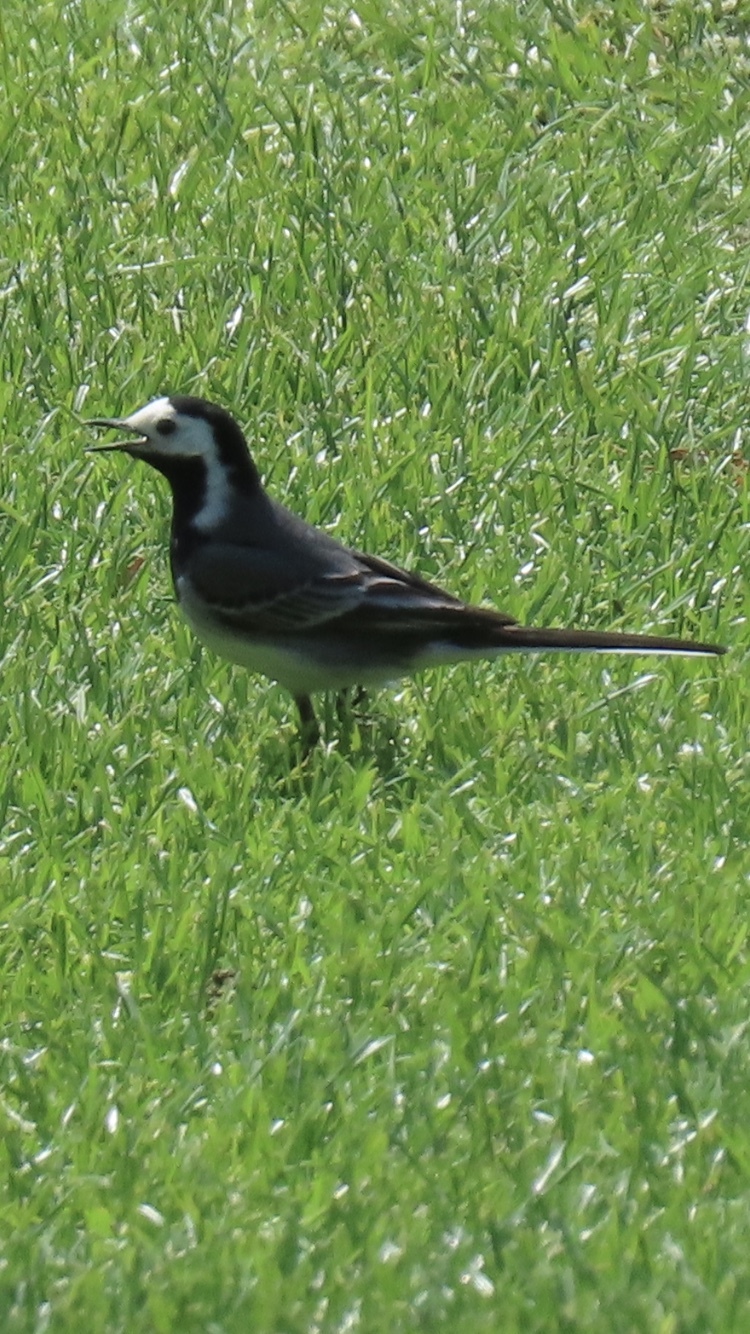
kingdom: Animalia
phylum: Chordata
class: Aves
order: Passeriformes
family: Motacillidae
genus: Motacilla
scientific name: Motacilla alba
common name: White wagtail
